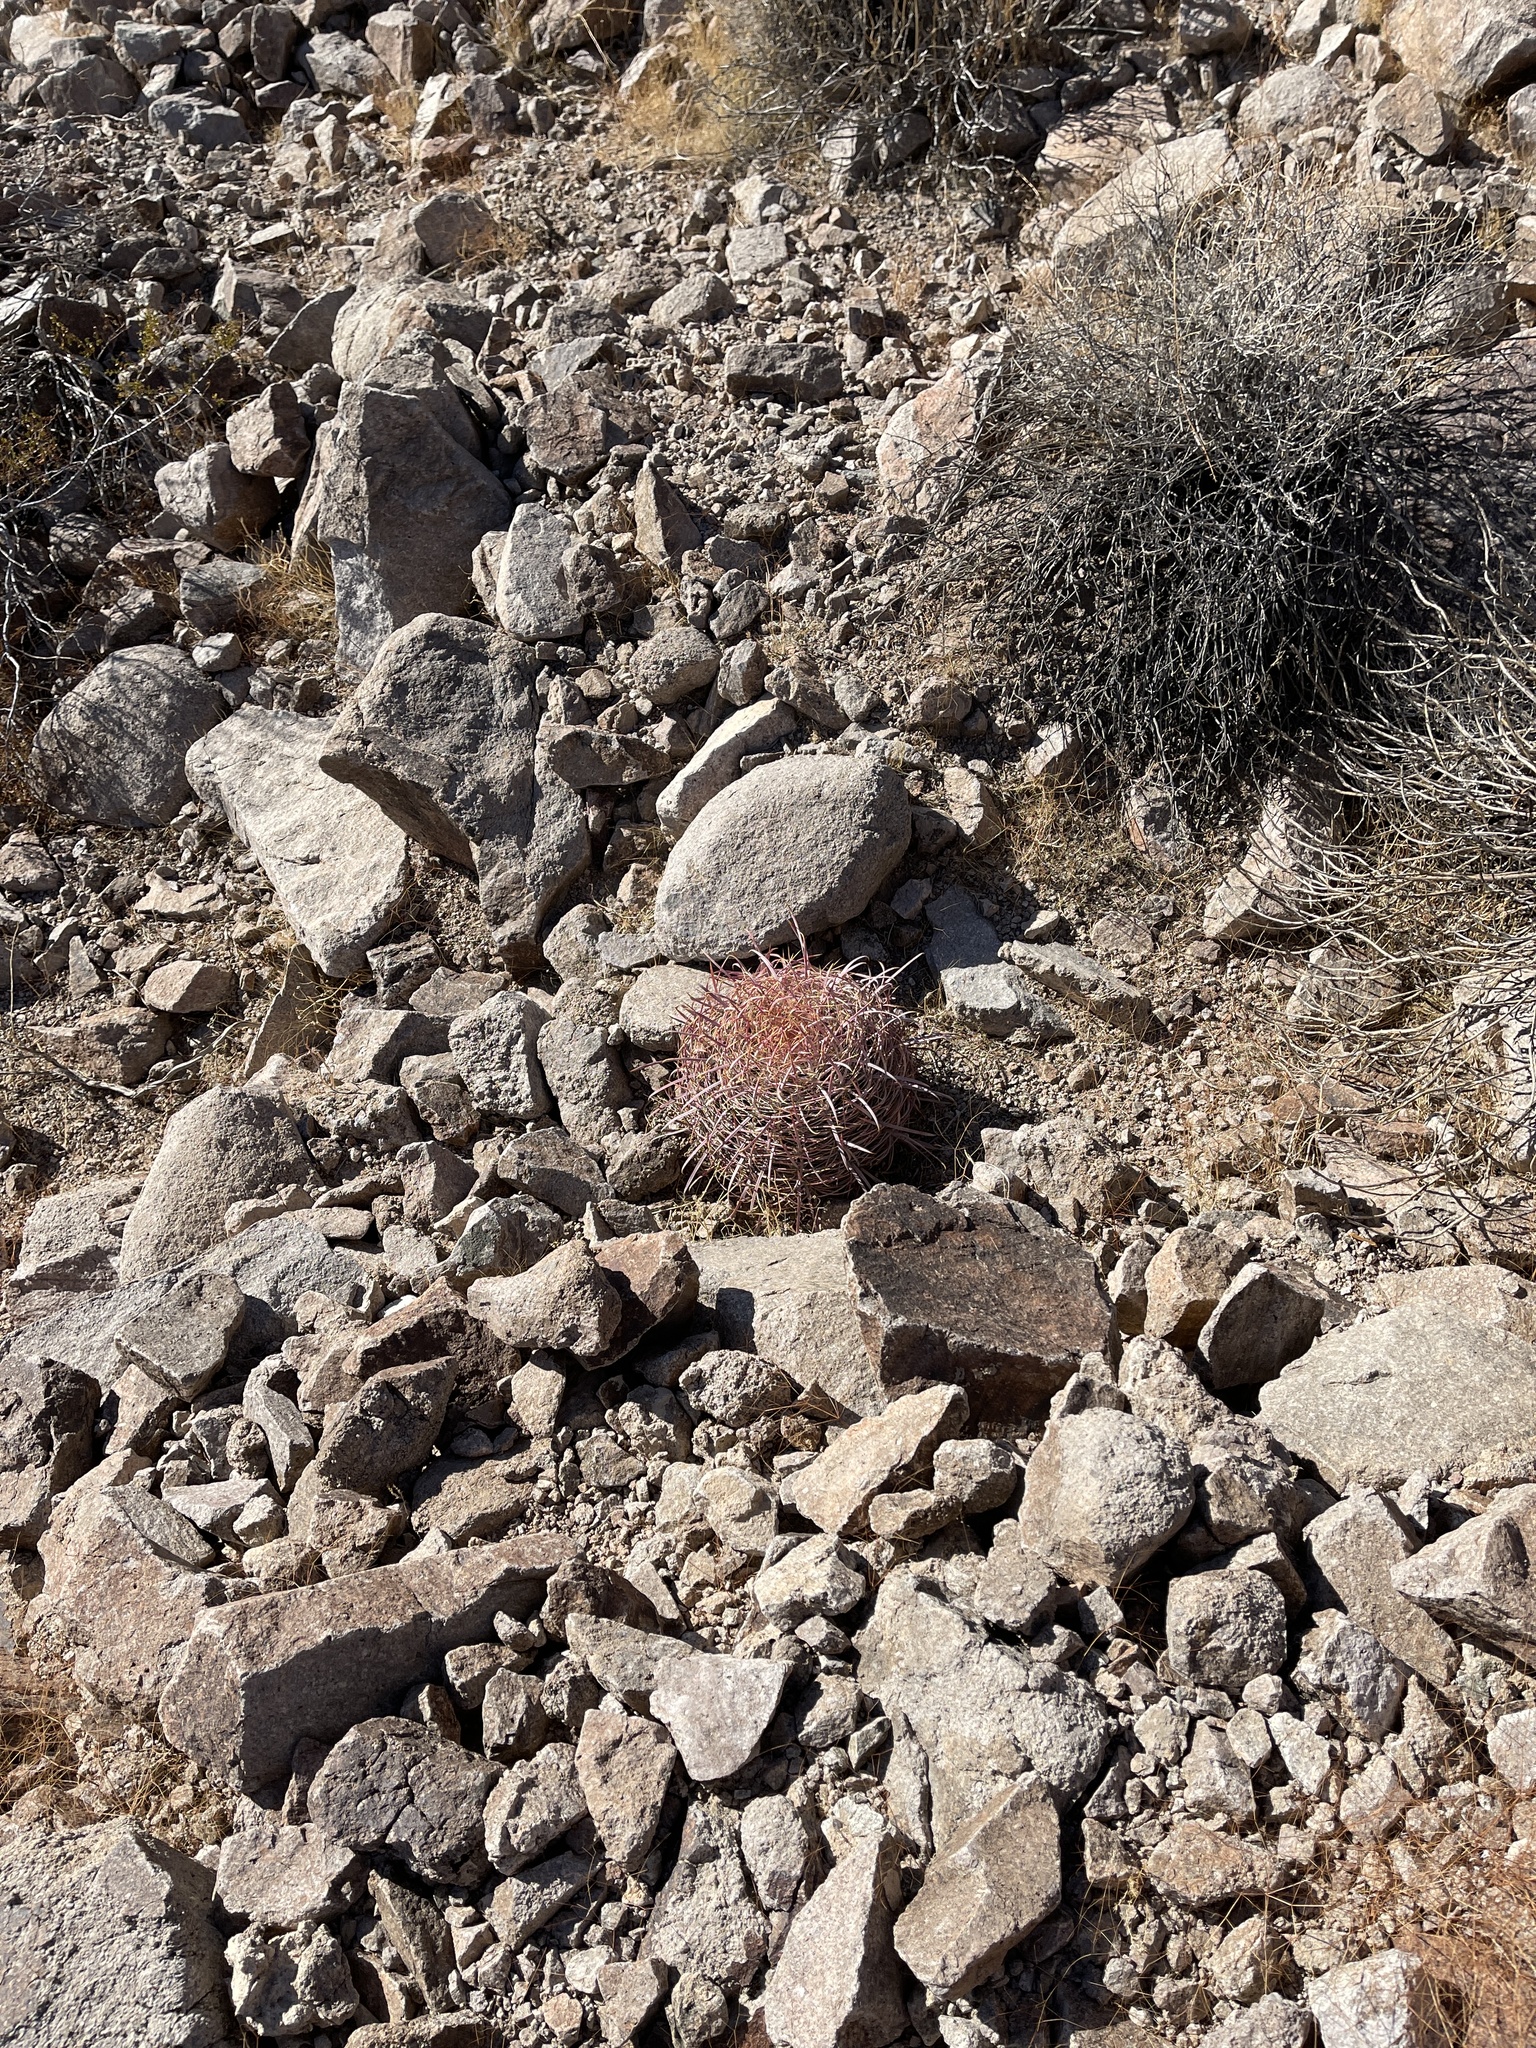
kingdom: Plantae
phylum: Tracheophyta
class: Magnoliopsida
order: Caryophyllales
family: Cactaceae
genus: Ferocactus
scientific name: Ferocactus cylindraceus
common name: California barrel cactus
